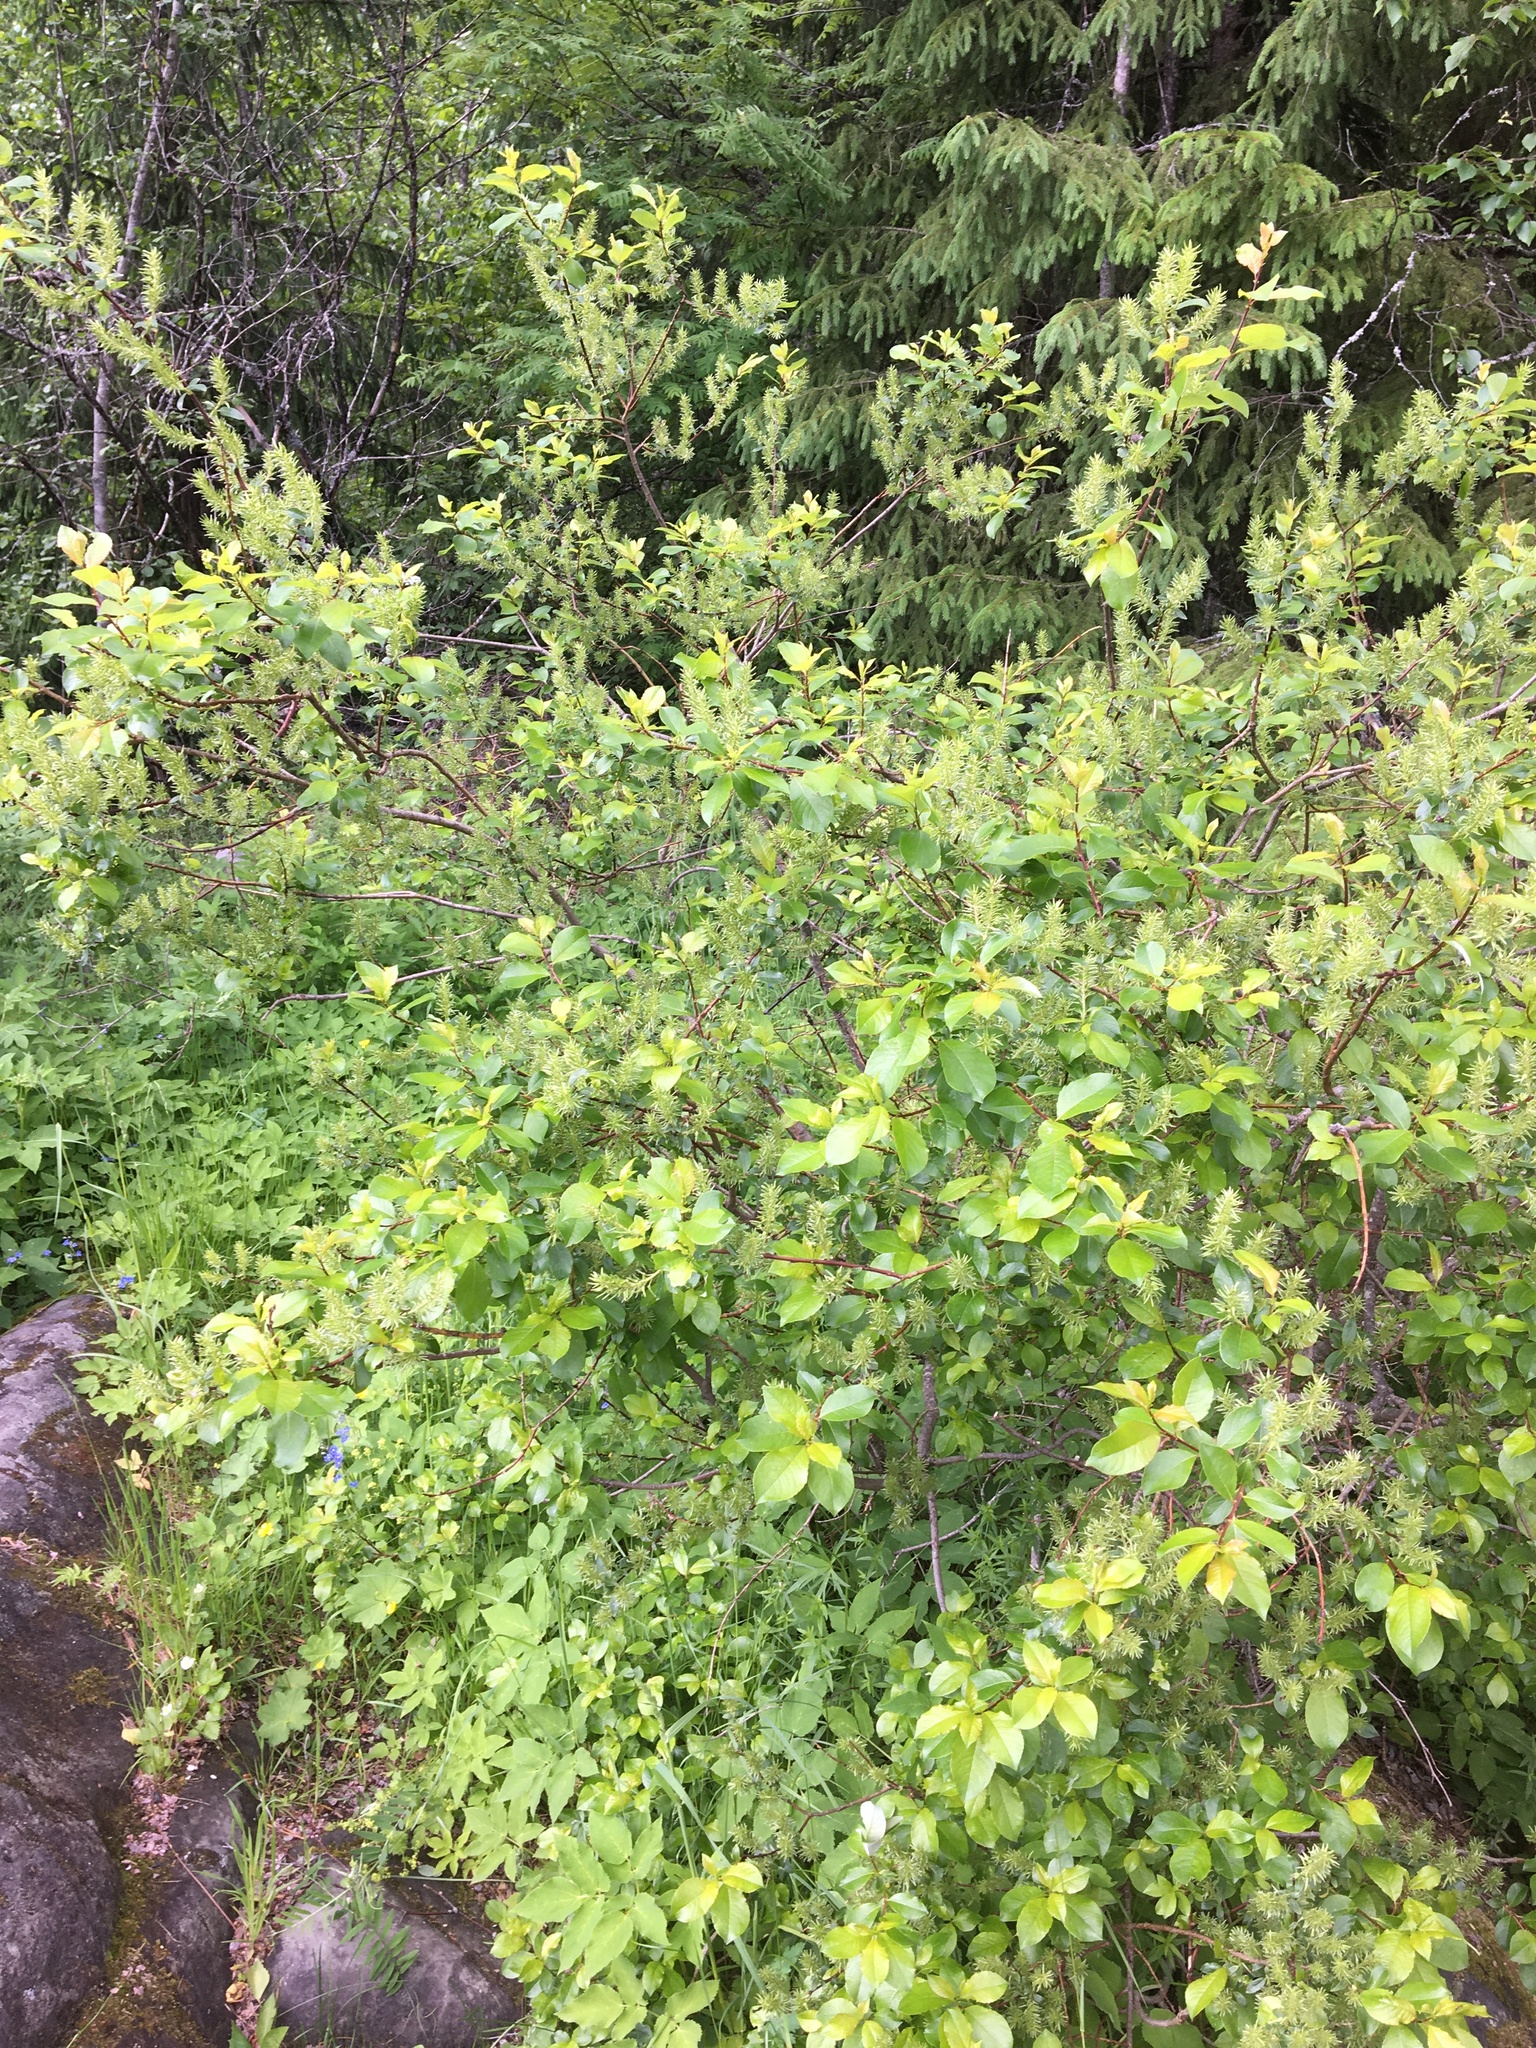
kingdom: Plantae
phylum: Tracheophyta
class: Magnoliopsida
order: Malpighiales
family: Salicaceae
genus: Salix
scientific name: Salix myrsinifolia
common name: Dark-leaved willow
